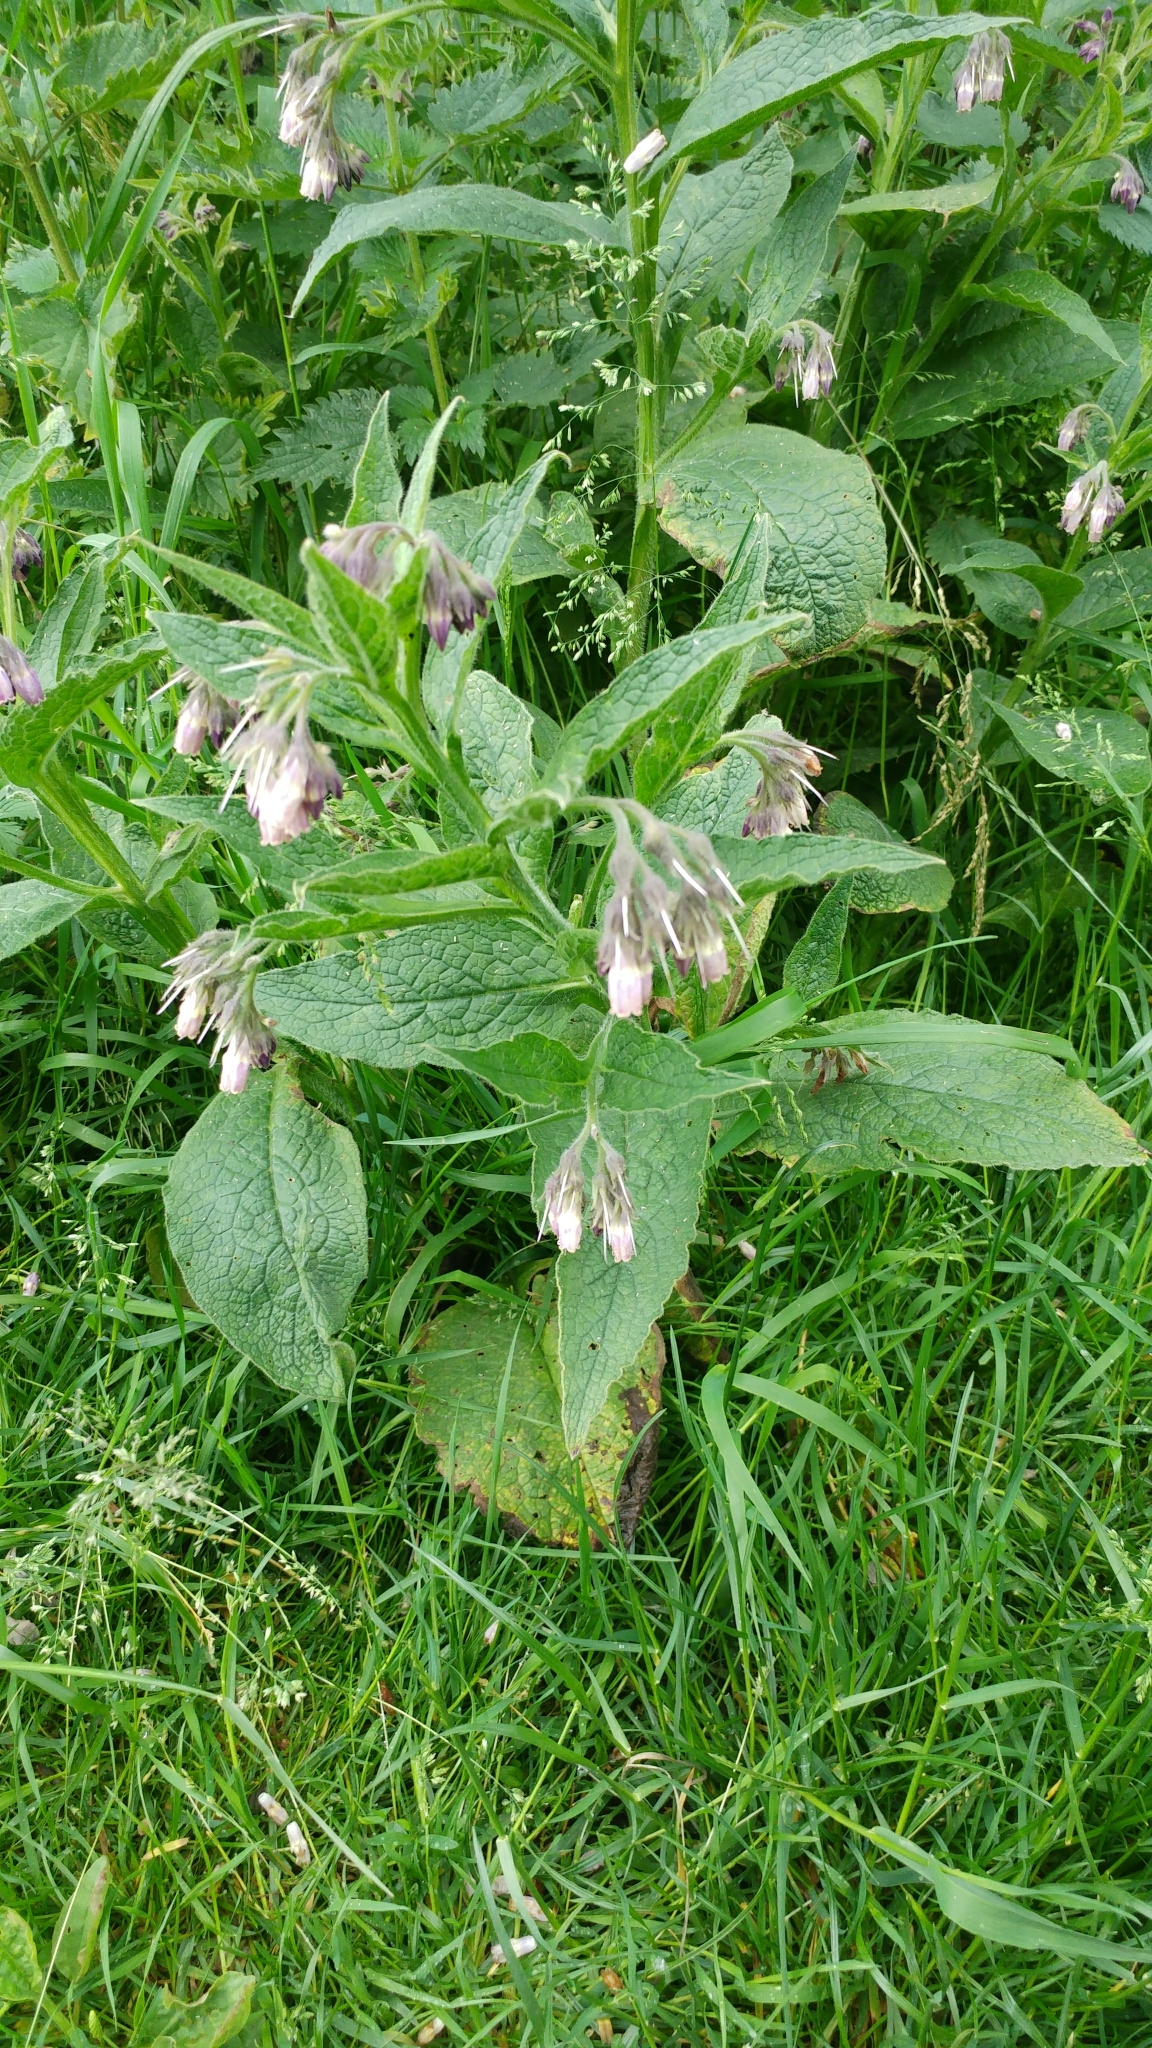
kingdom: Plantae
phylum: Tracheophyta
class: Magnoliopsida
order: Boraginales
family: Boraginaceae
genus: Symphytum
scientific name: Symphytum officinale
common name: Common comfrey
